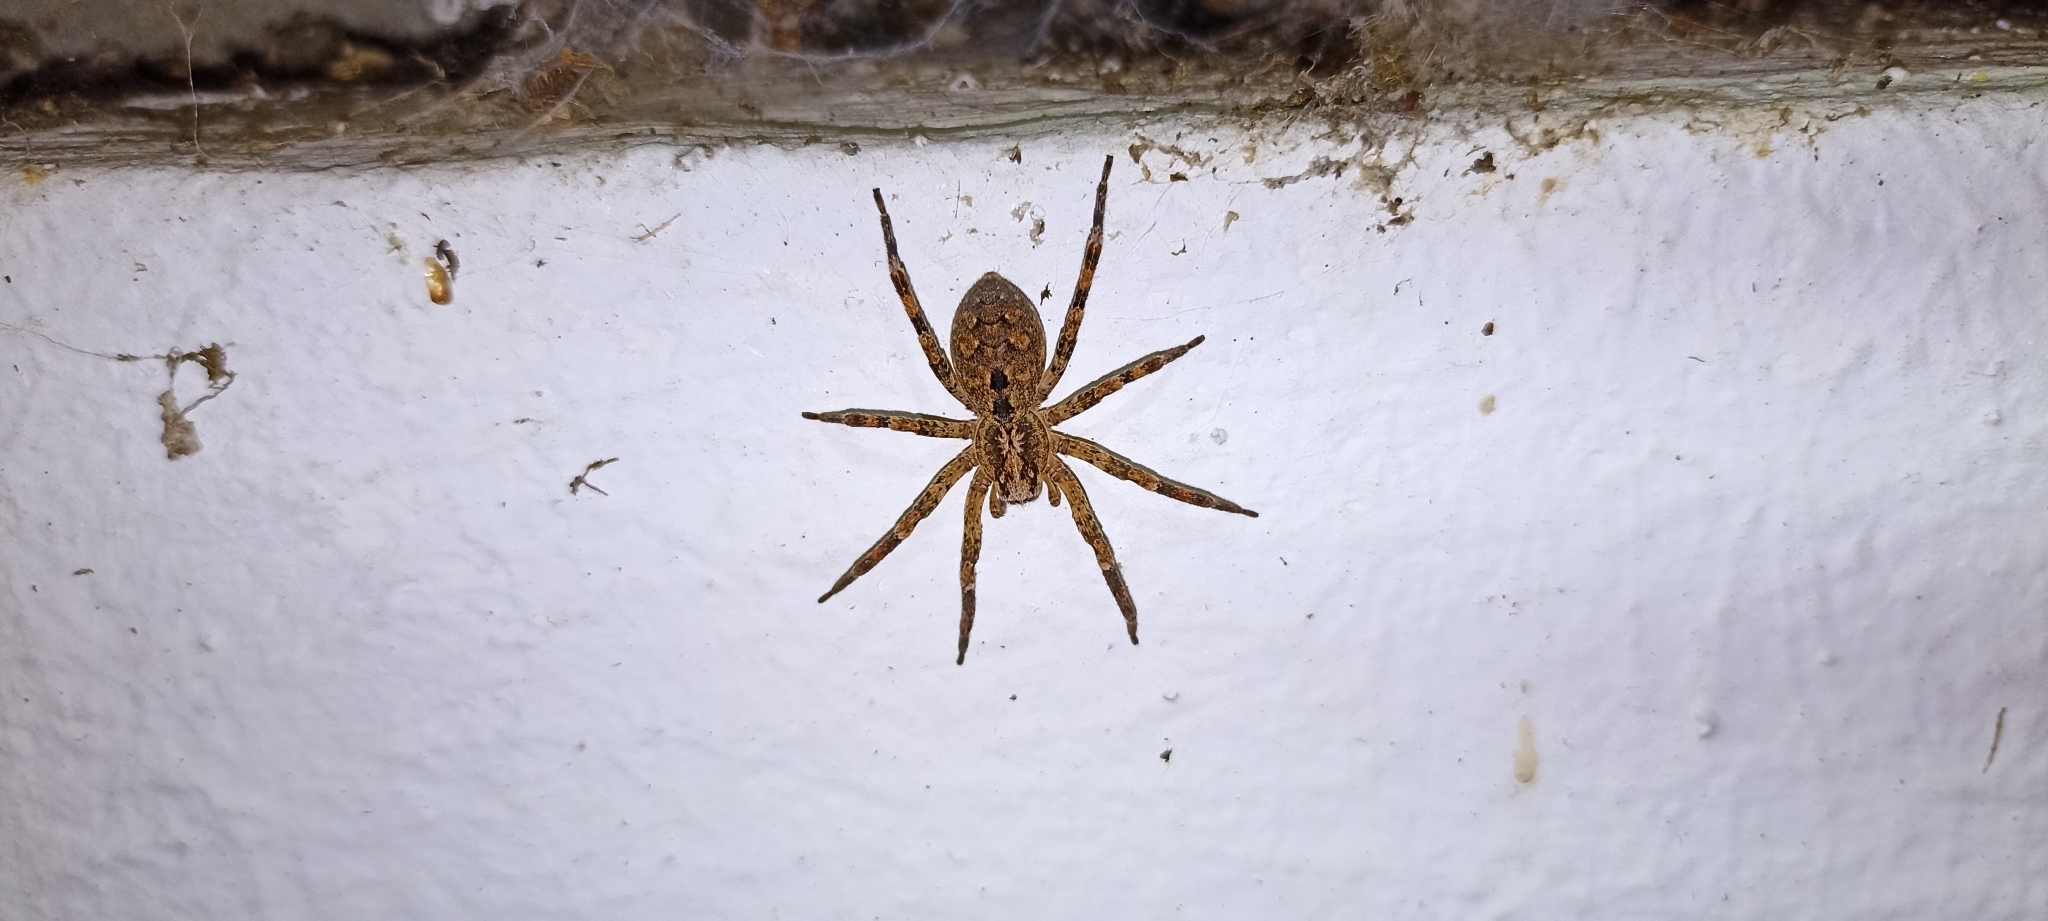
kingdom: Animalia
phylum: Arthropoda
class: Arachnida
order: Araneae
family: Zoropsidae
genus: Zoropsis
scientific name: Zoropsis spinimana
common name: Zoropsid spider
